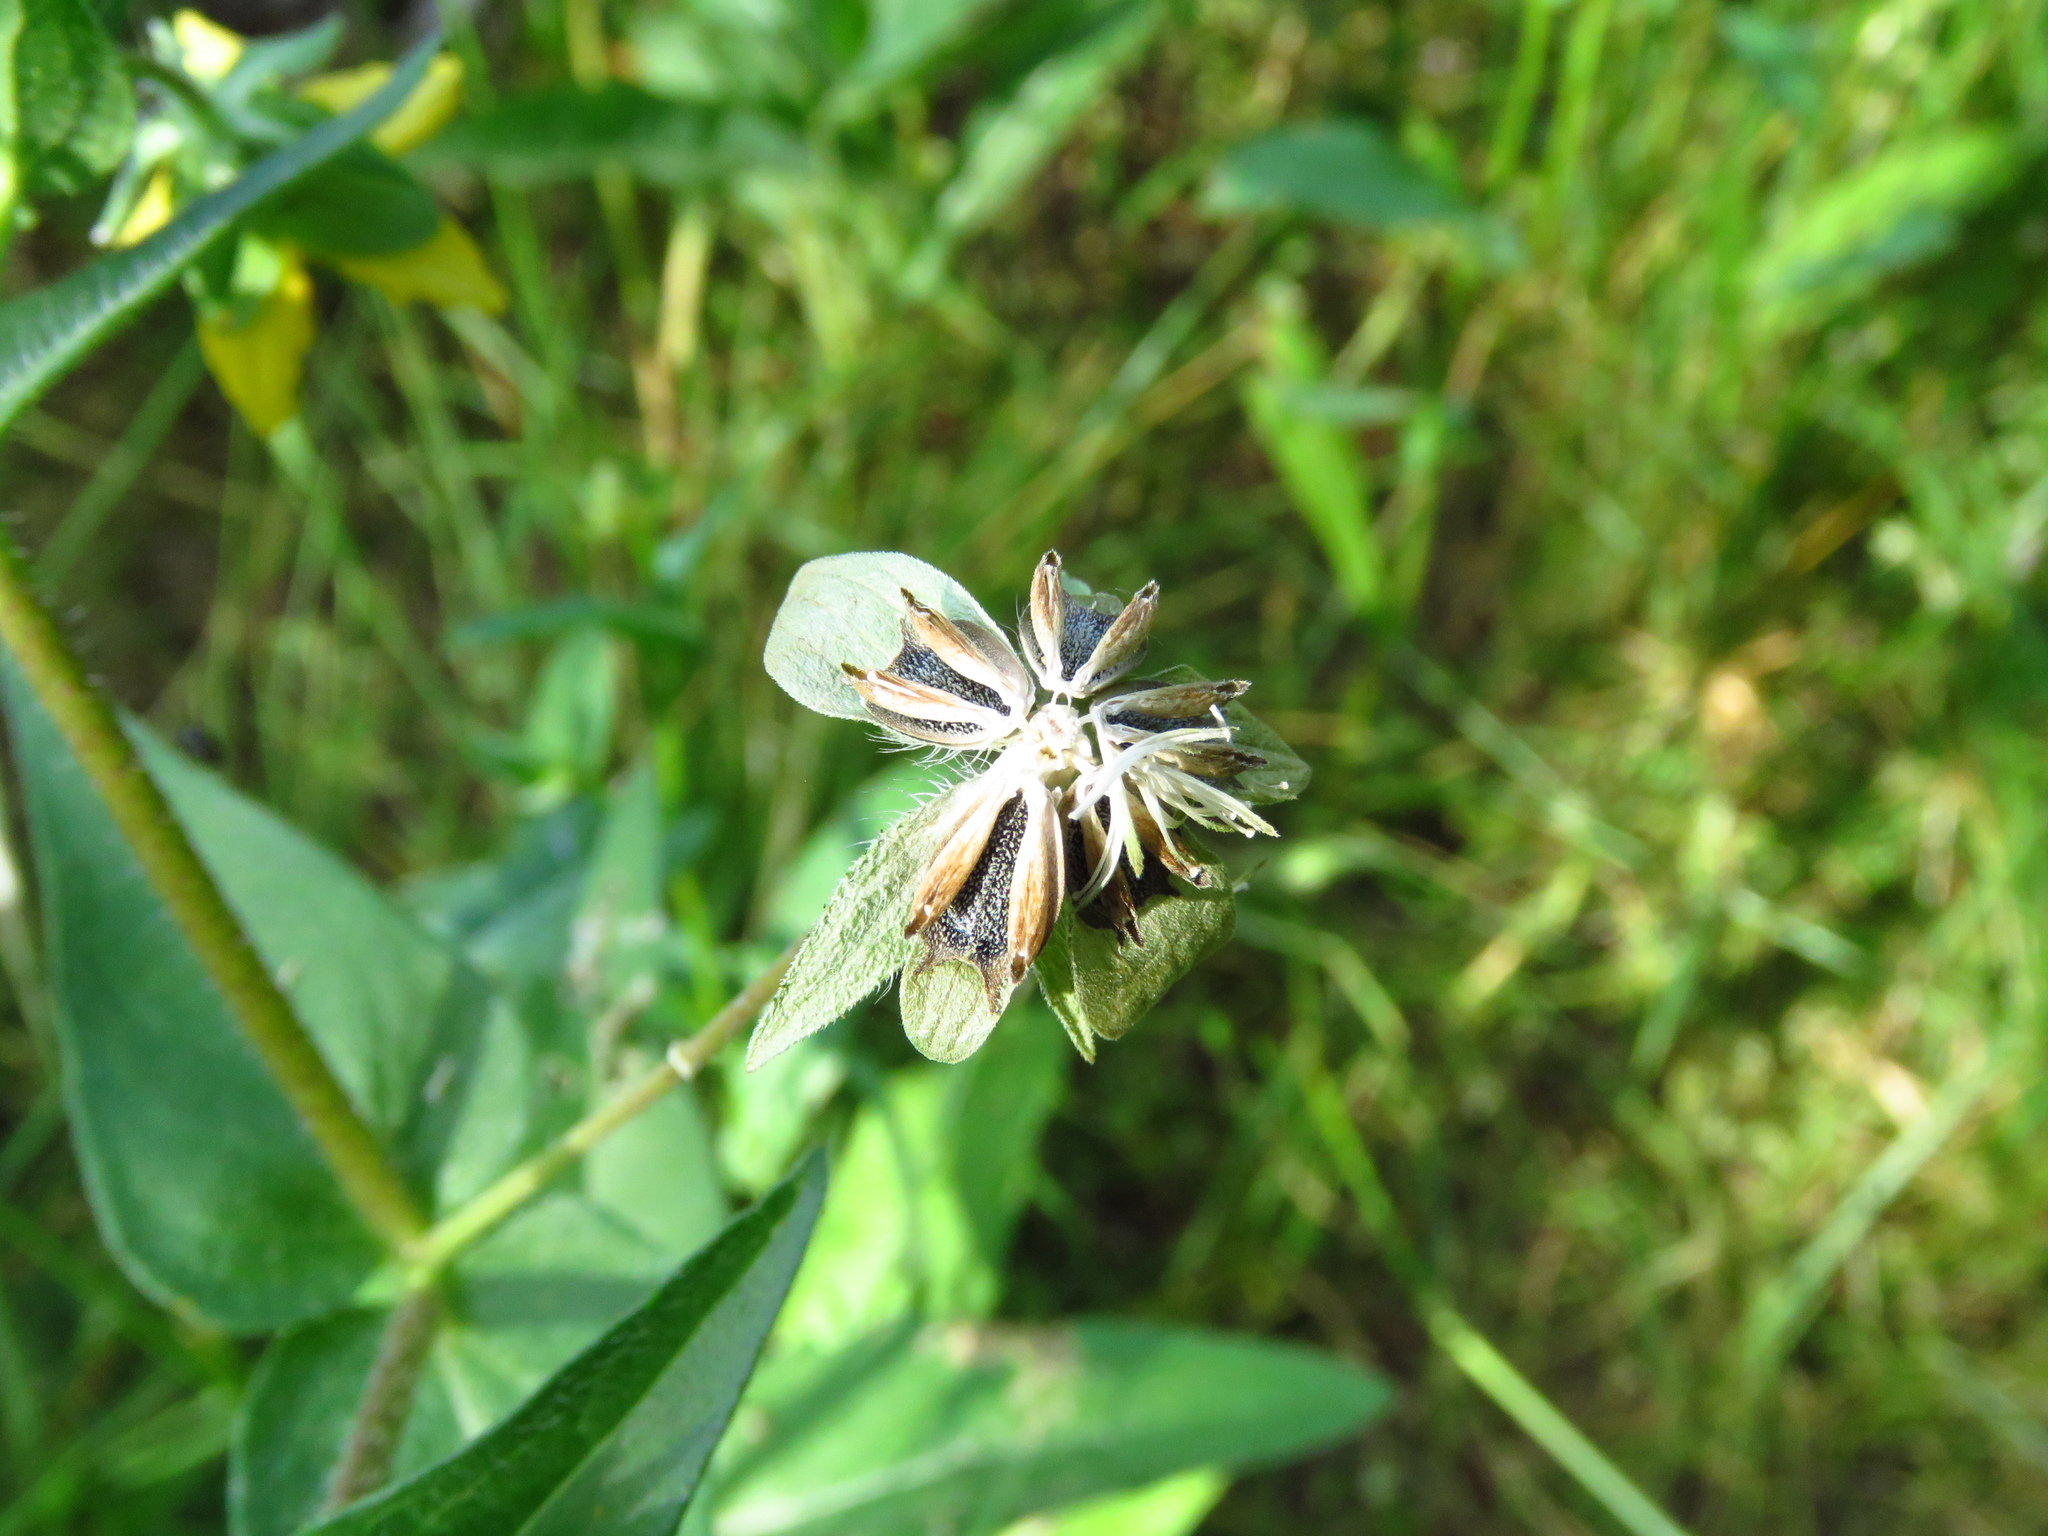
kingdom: Plantae
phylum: Tracheophyta
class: Magnoliopsida
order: Asterales
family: Asteraceae
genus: Lindheimera
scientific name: Lindheimera texana
